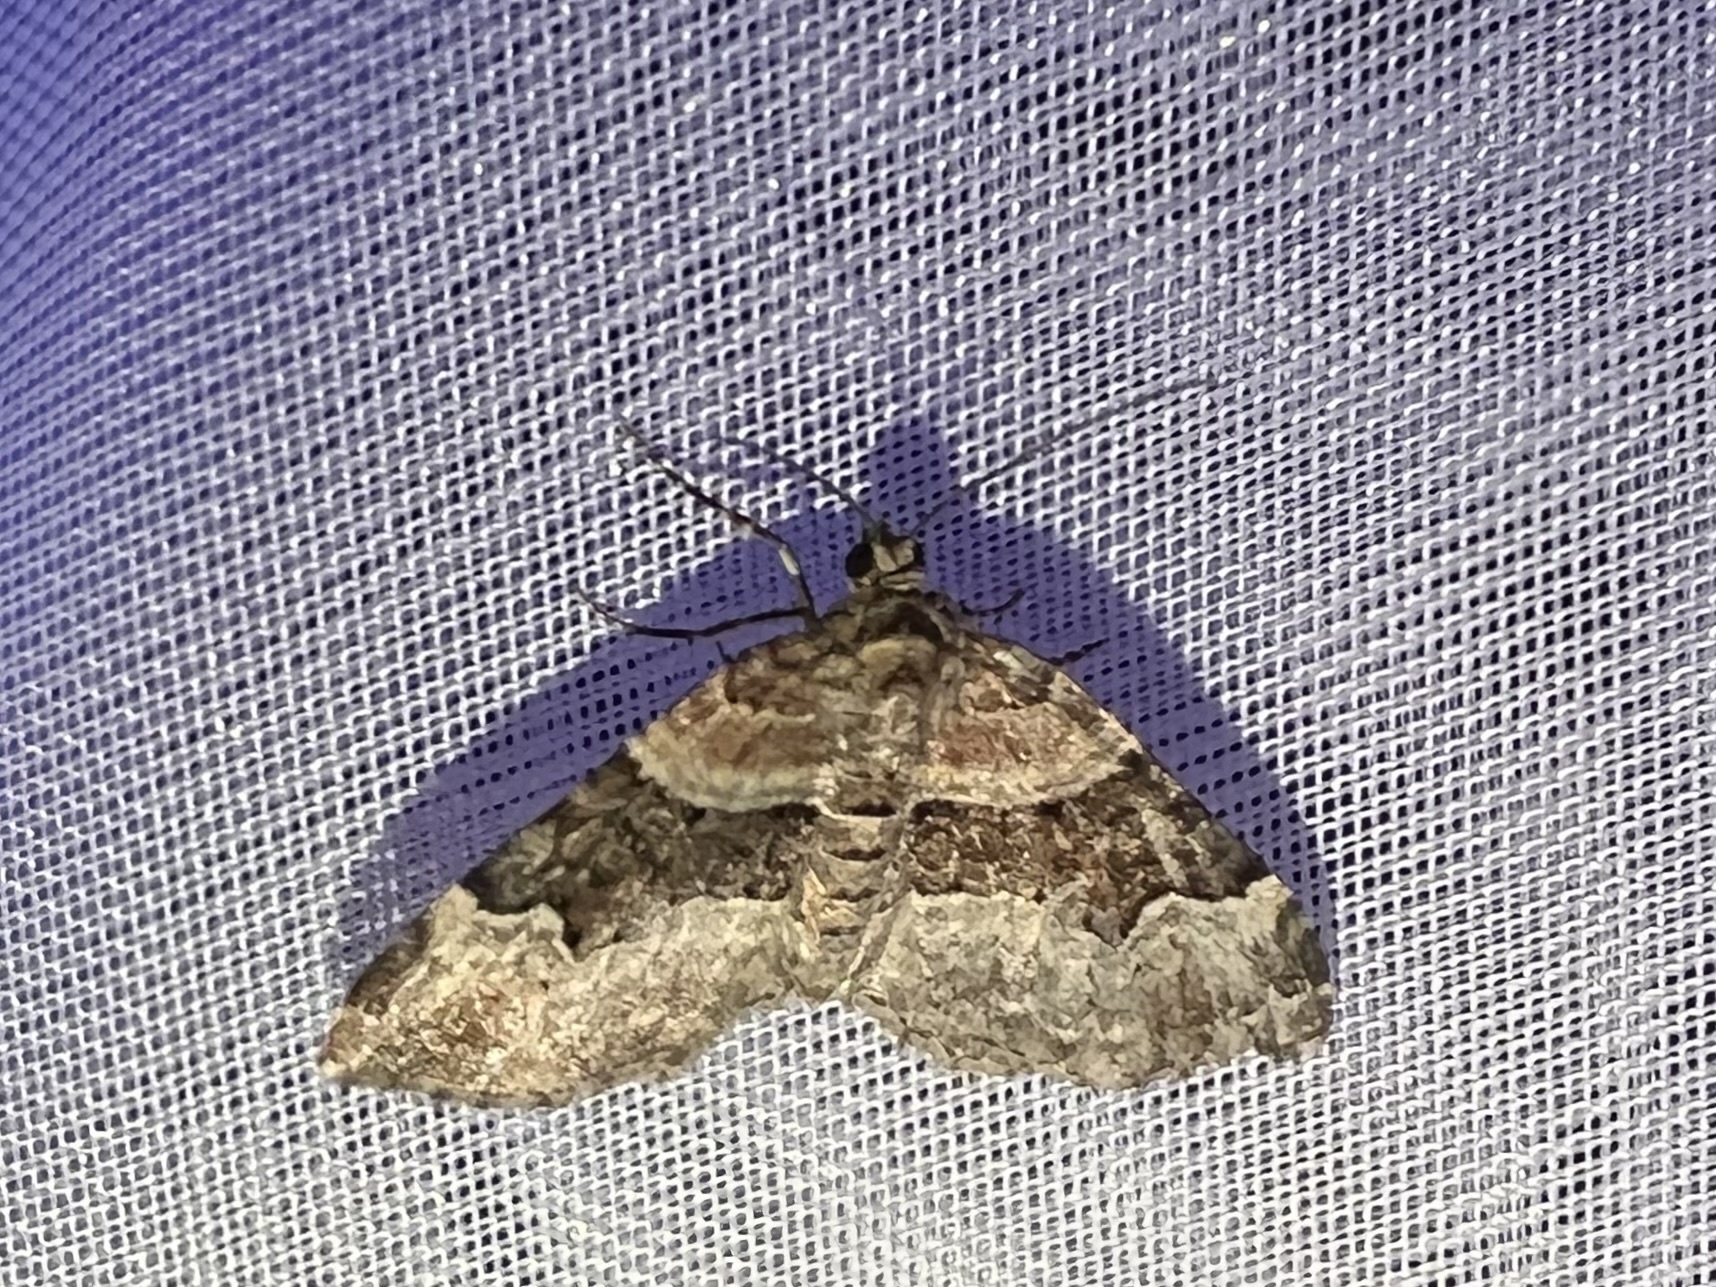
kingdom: Animalia
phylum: Arthropoda
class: Insecta
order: Lepidoptera
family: Geometridae
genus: Xanthorhoe
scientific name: Xanthorhoe lacustrata
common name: Toothed brown carpet
